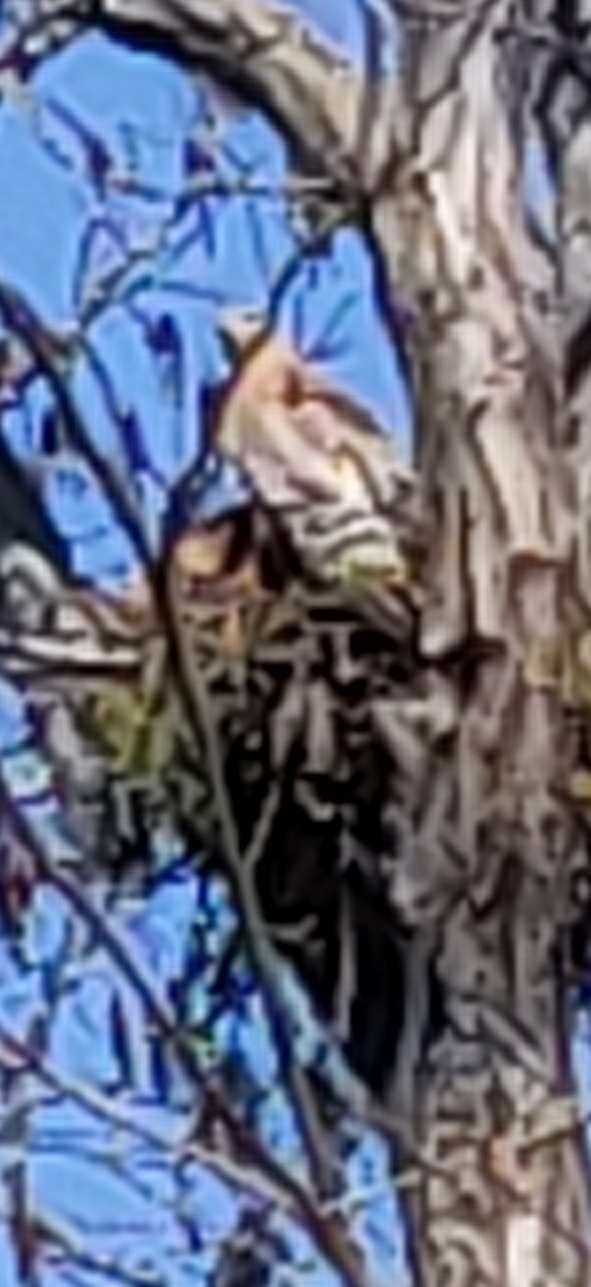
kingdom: Animalia
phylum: Chordata
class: Aves
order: Accipitriformes
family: Accipitridae
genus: Buteo
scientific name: Buteo lineatus
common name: Red-shouldered hawk
